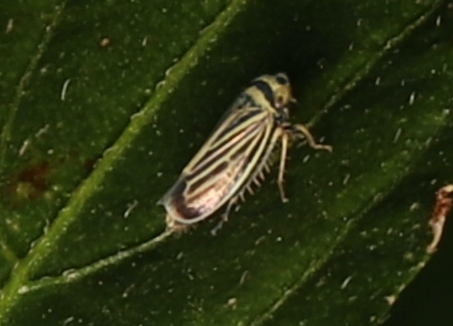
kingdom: Animalia
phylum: Arthropoda
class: Insecta
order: Hemiptera
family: Cicadellidae
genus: Amblysellus
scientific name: Amblysellus curtisii
